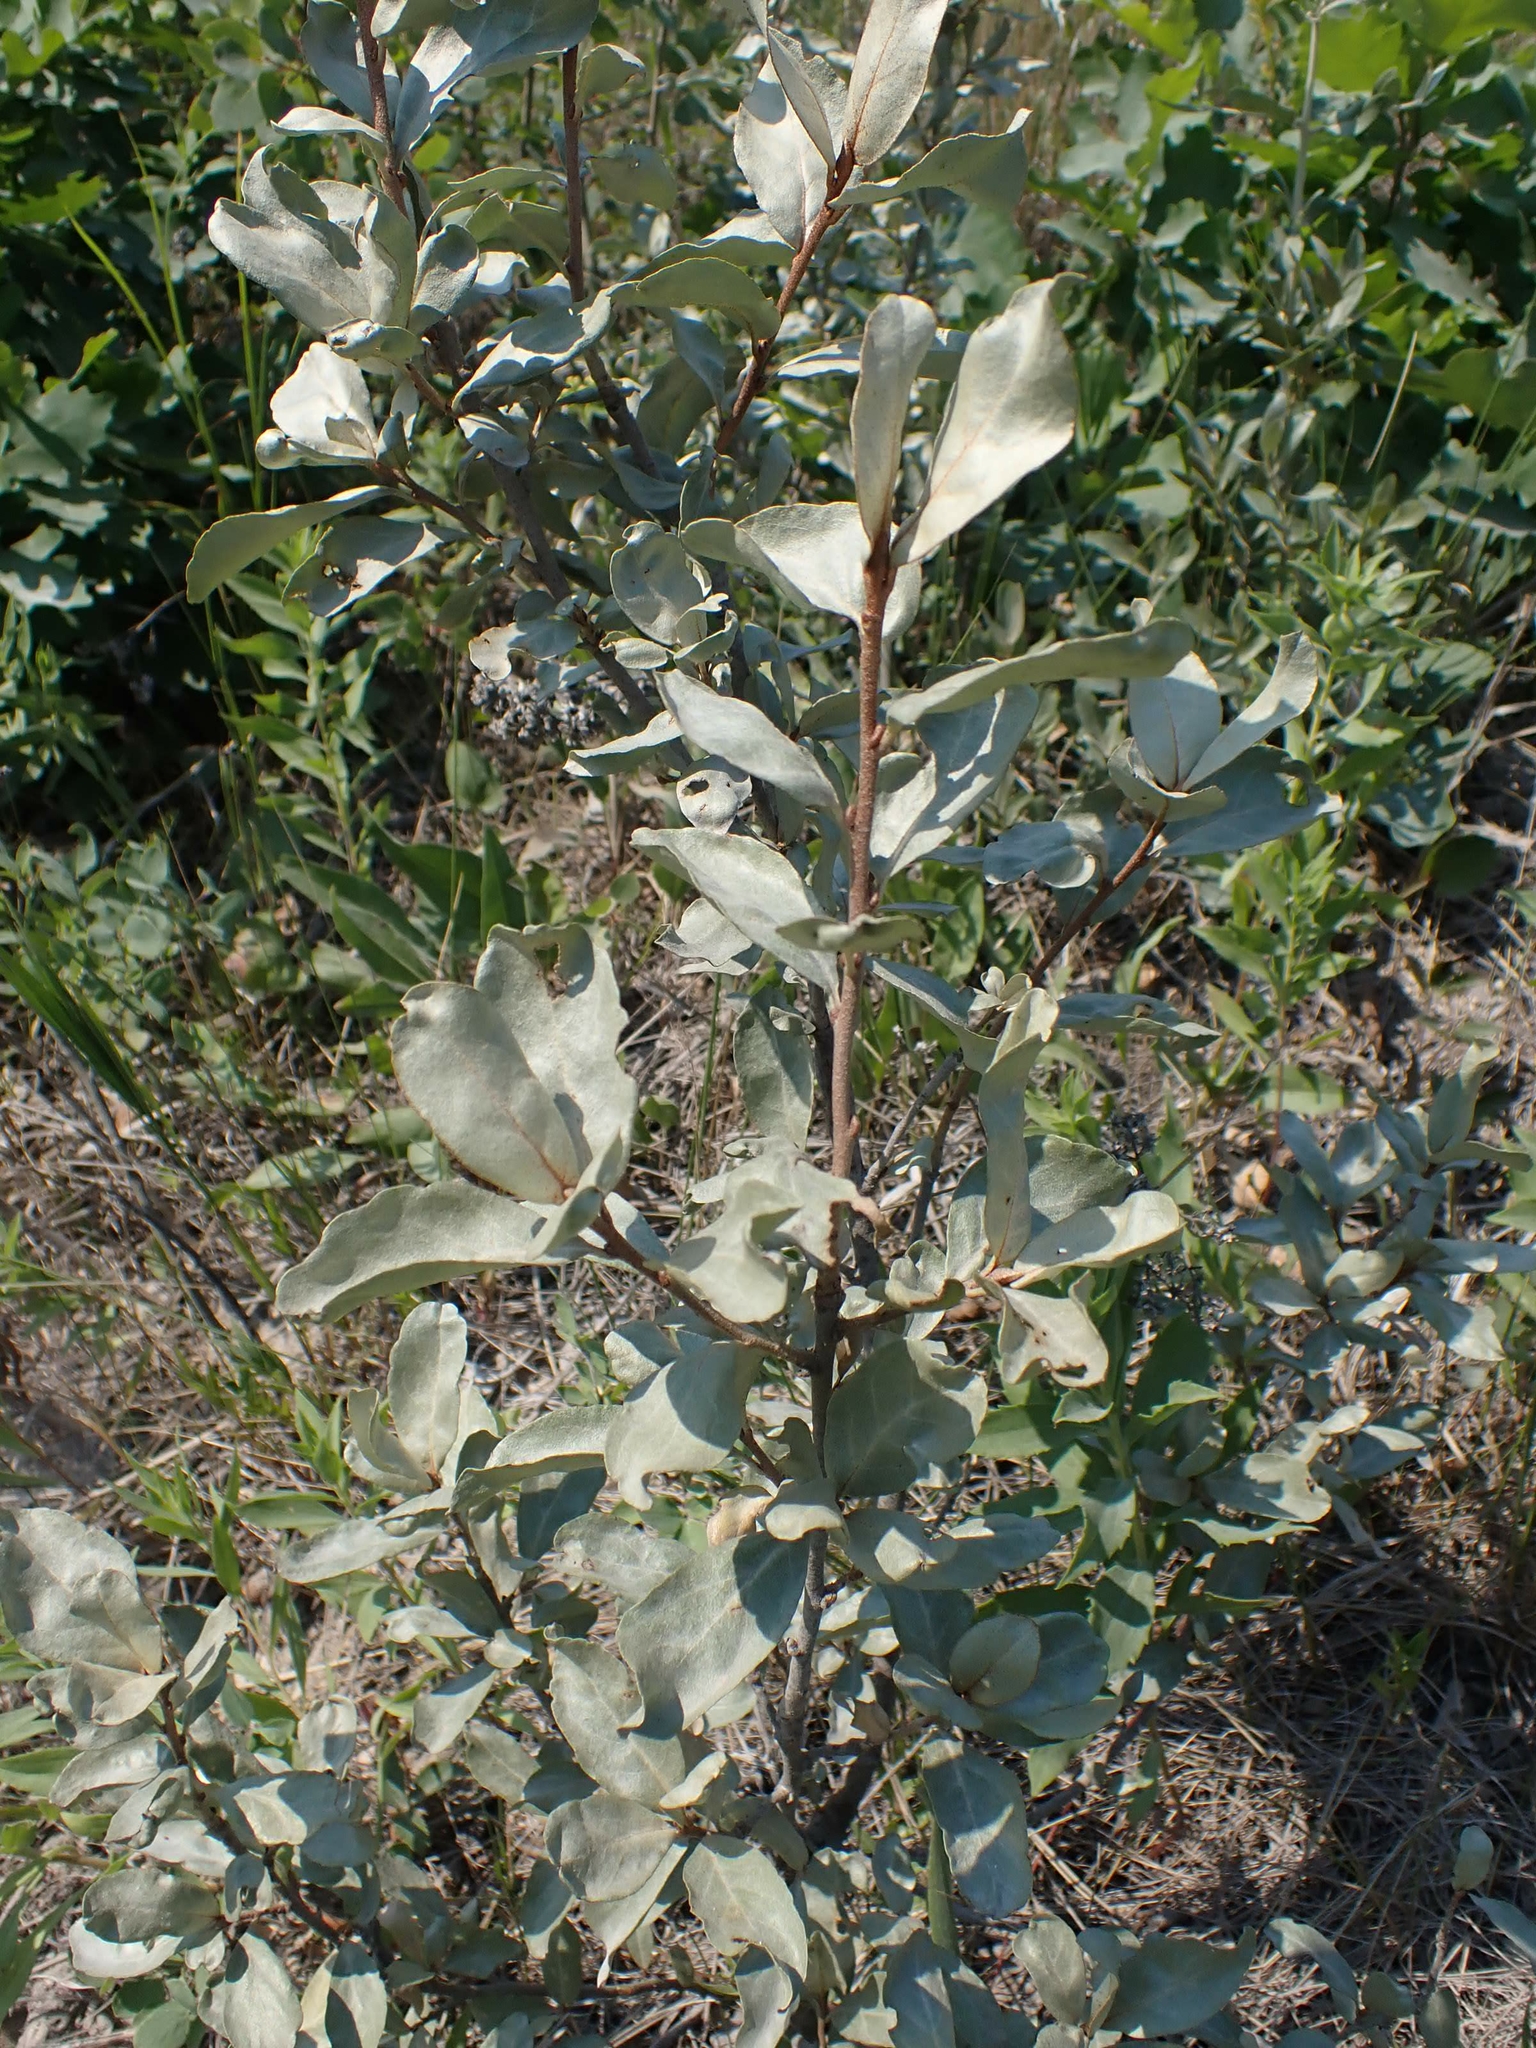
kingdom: Plantae
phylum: Tracheophyta
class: Magnoliopsida
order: Rosales
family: Elaeagnaceae
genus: Elaeagnus
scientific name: Elaeagnus commutata
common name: Silverberry
